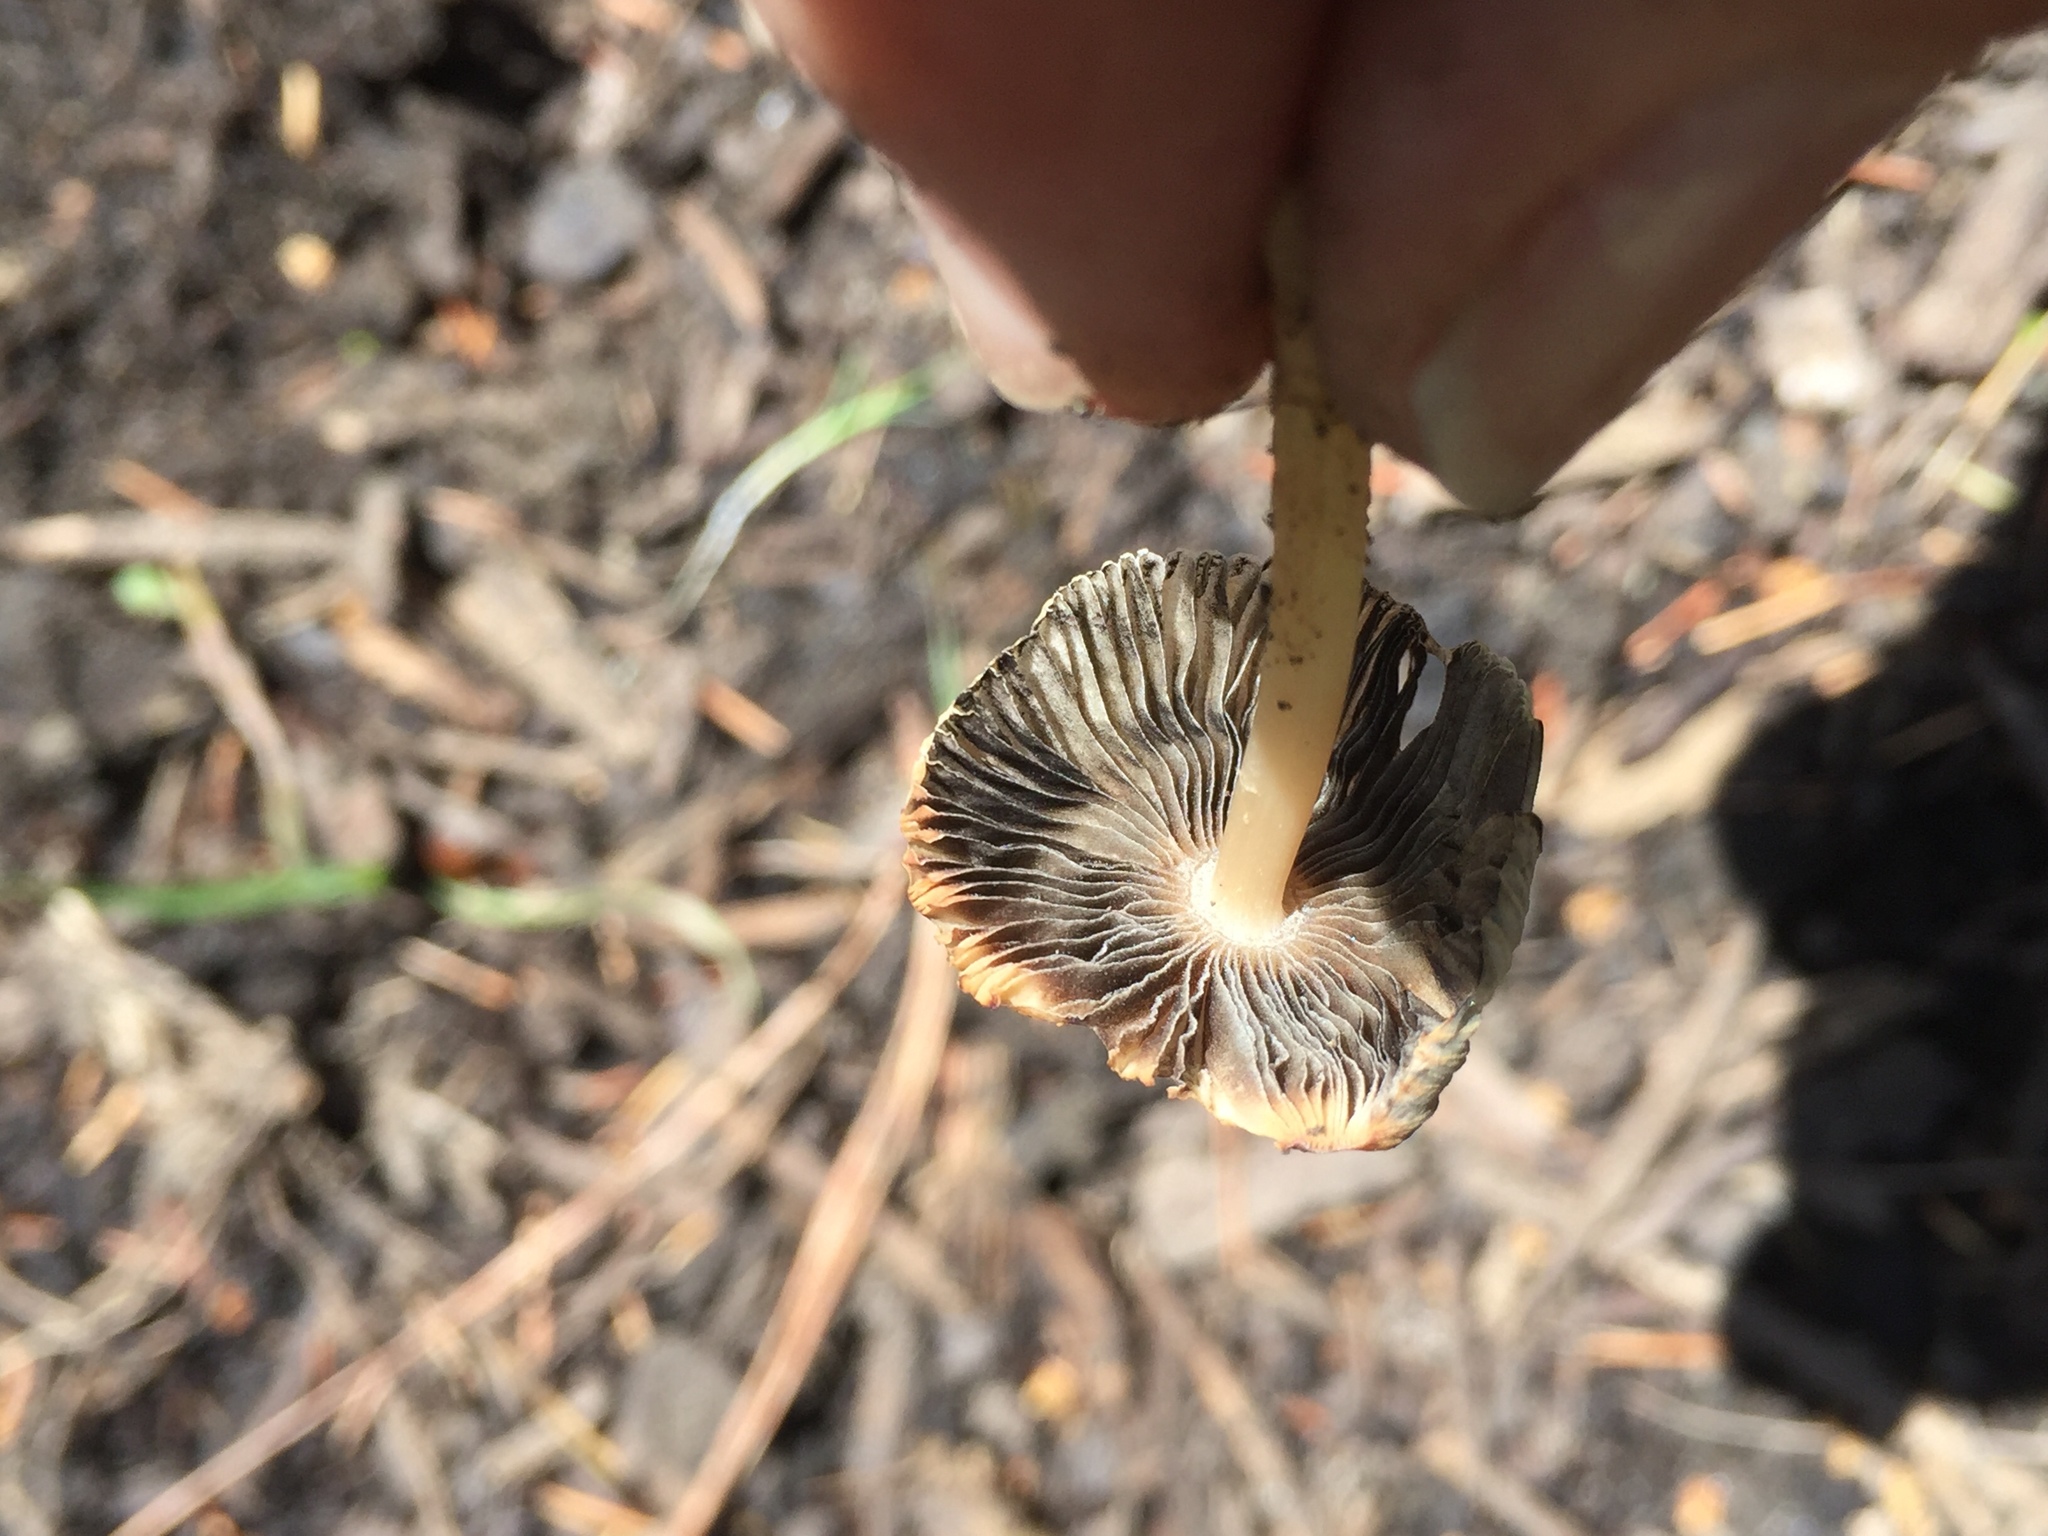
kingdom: Fungi
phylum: Basidiomycota
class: Agaricomycetes
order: Agaricales
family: Psathyrellaceae
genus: Parasola
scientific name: Parasola auricoma
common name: Goldenhaired inkcap
